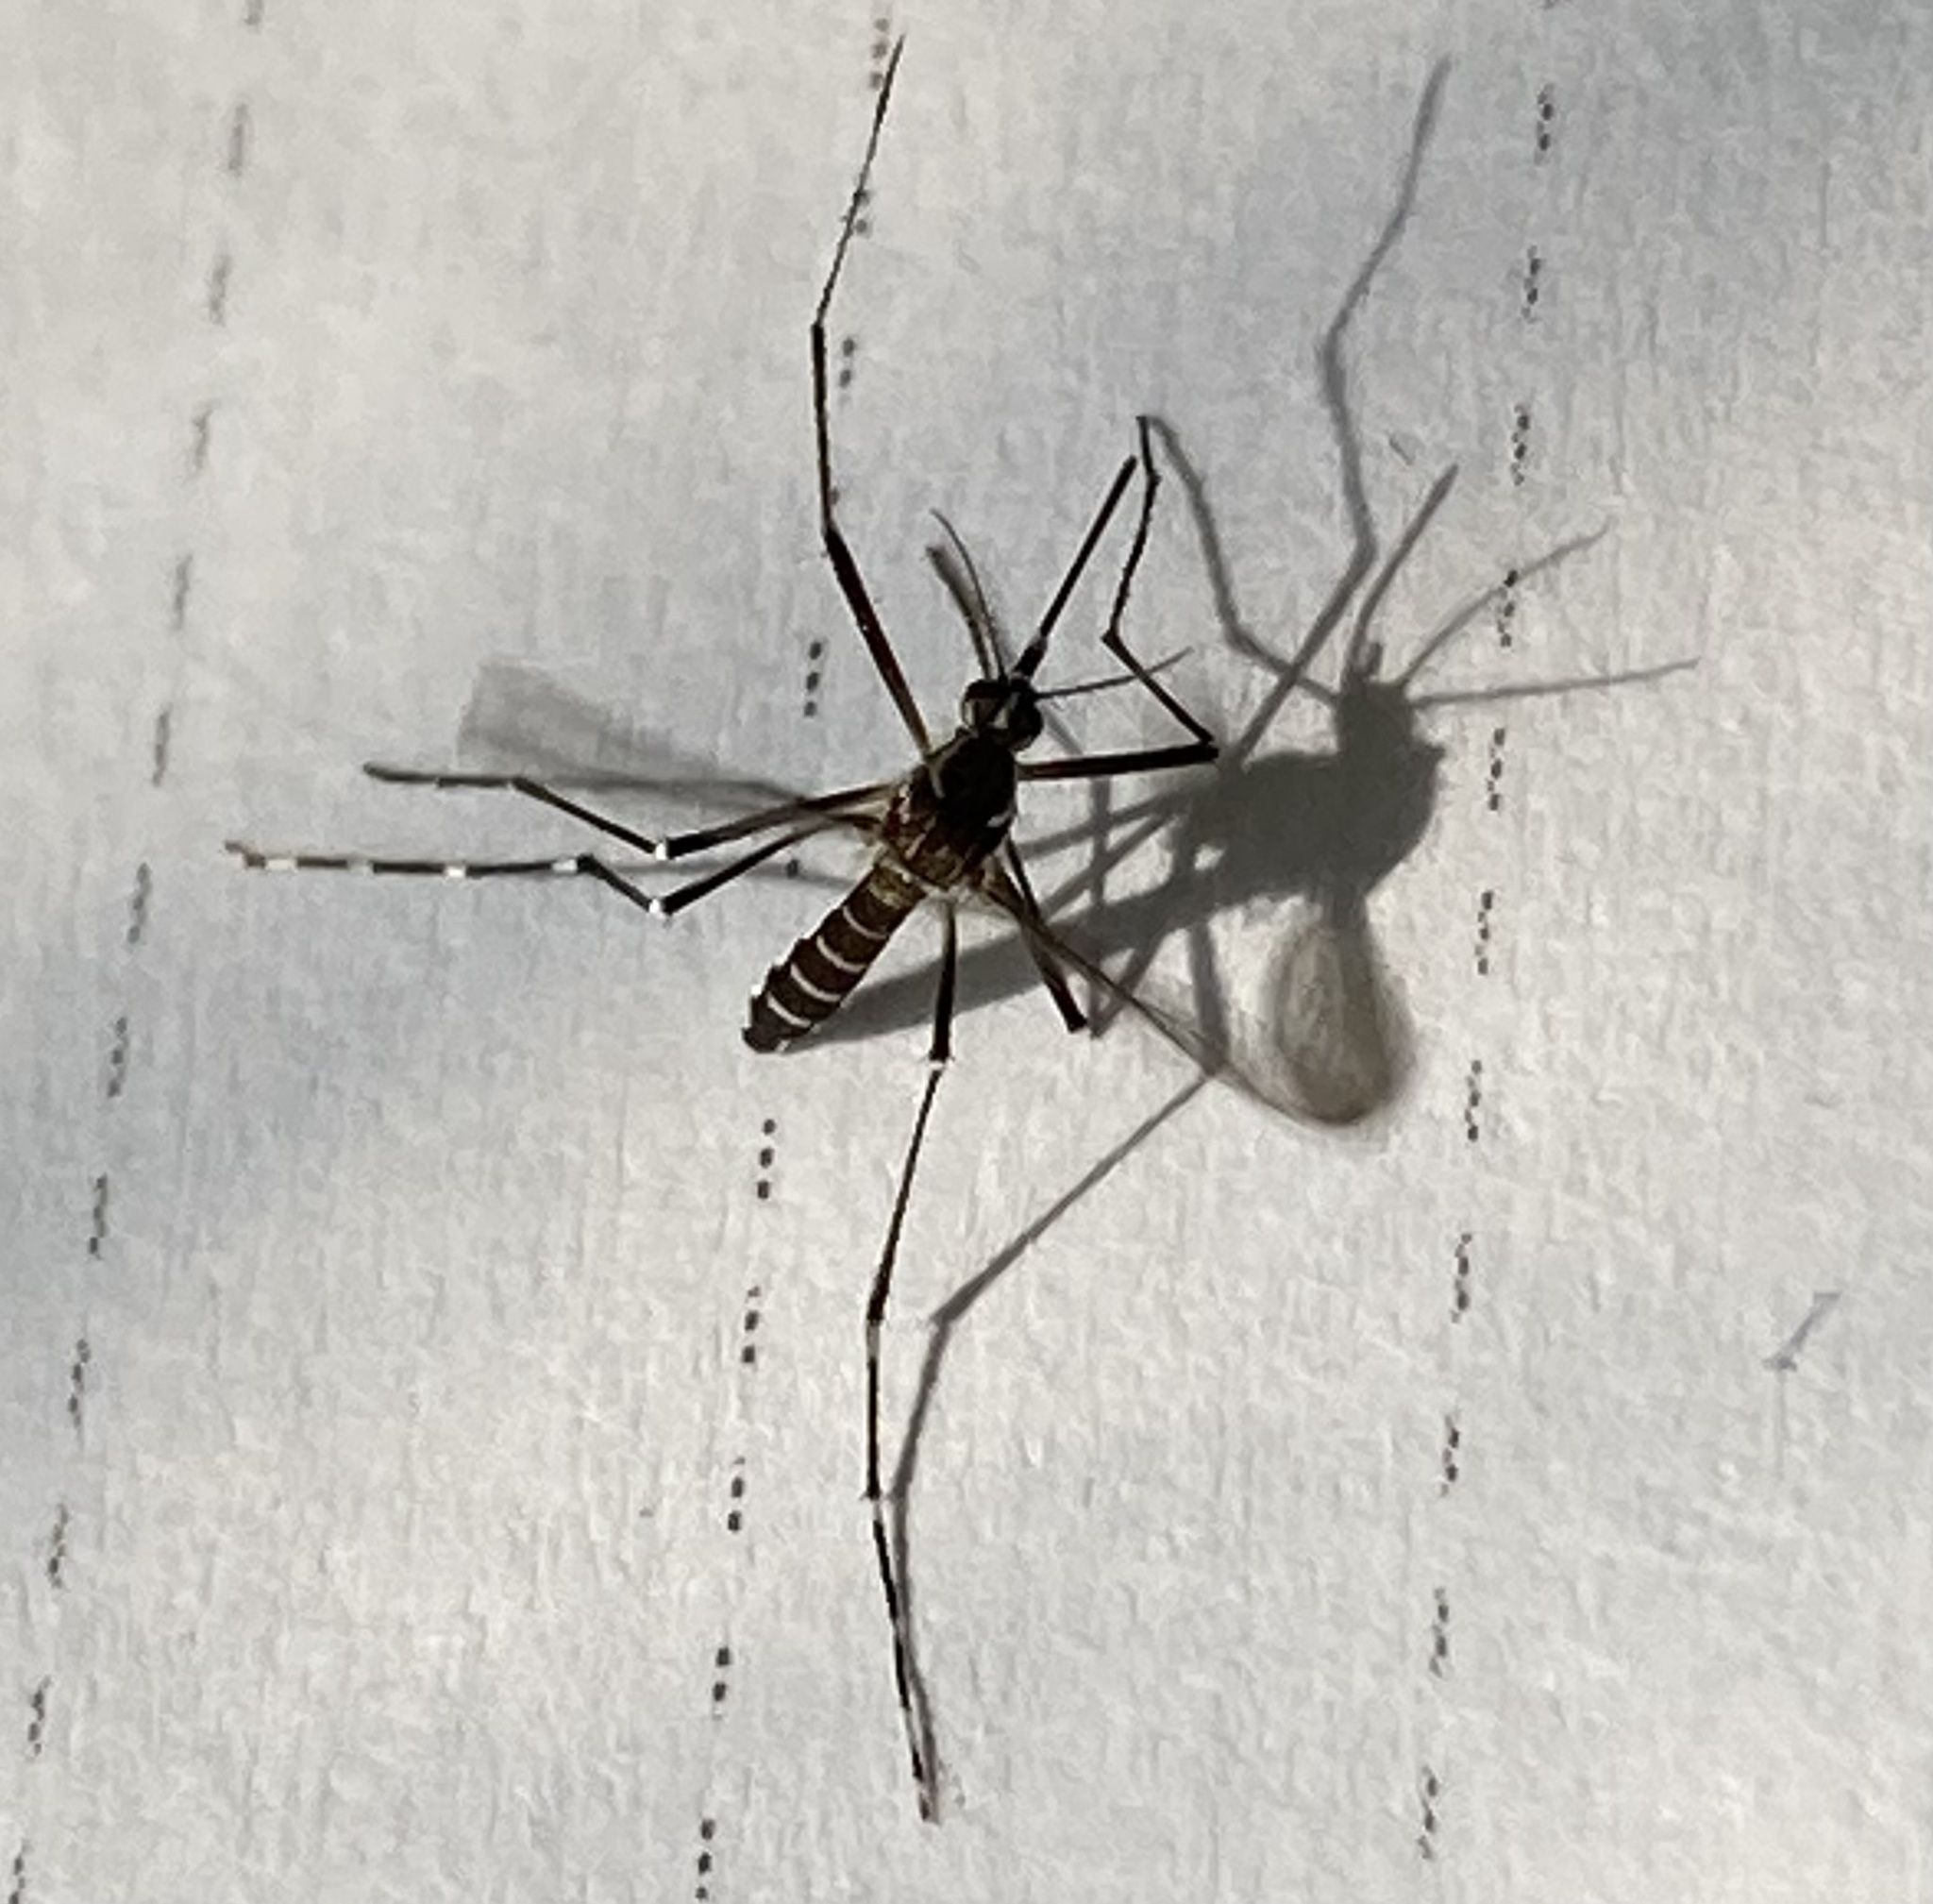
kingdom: Animalia
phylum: Arthropoda
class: Insecta
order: Diptera
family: Culicidae
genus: Aedes
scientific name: Aedes aegypti
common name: Yellow fever mosquito
